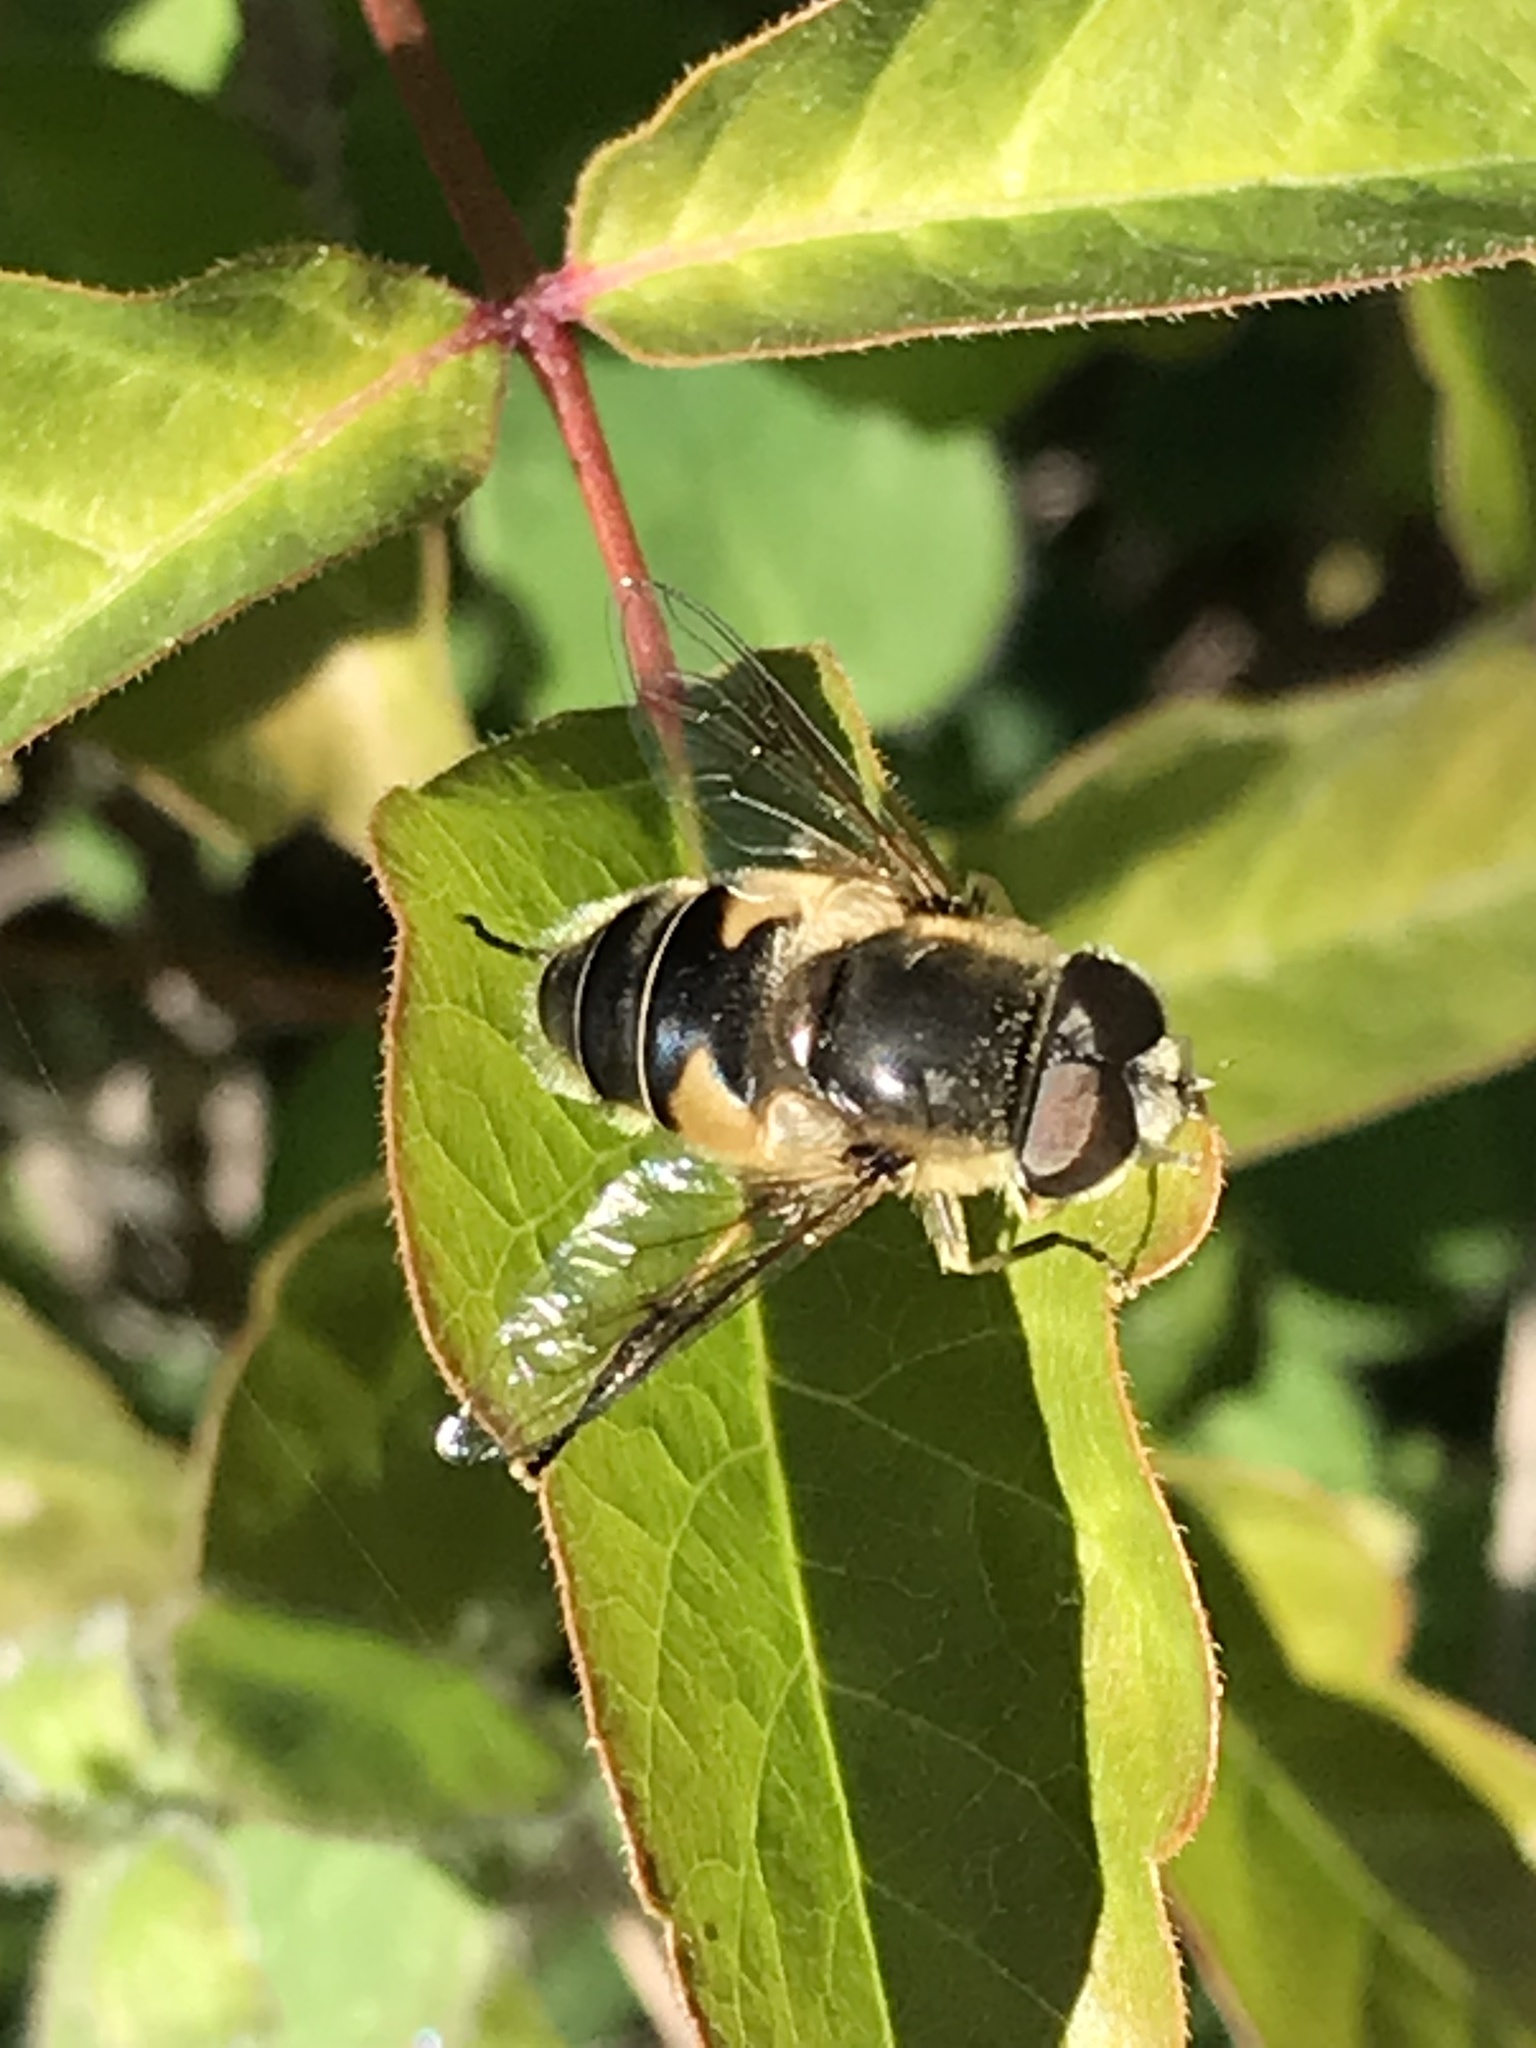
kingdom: Animalia
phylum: Arthropoda
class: Insecta
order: Diptera
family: Syrphidae
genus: Eristalis
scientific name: Eristalis hirta
